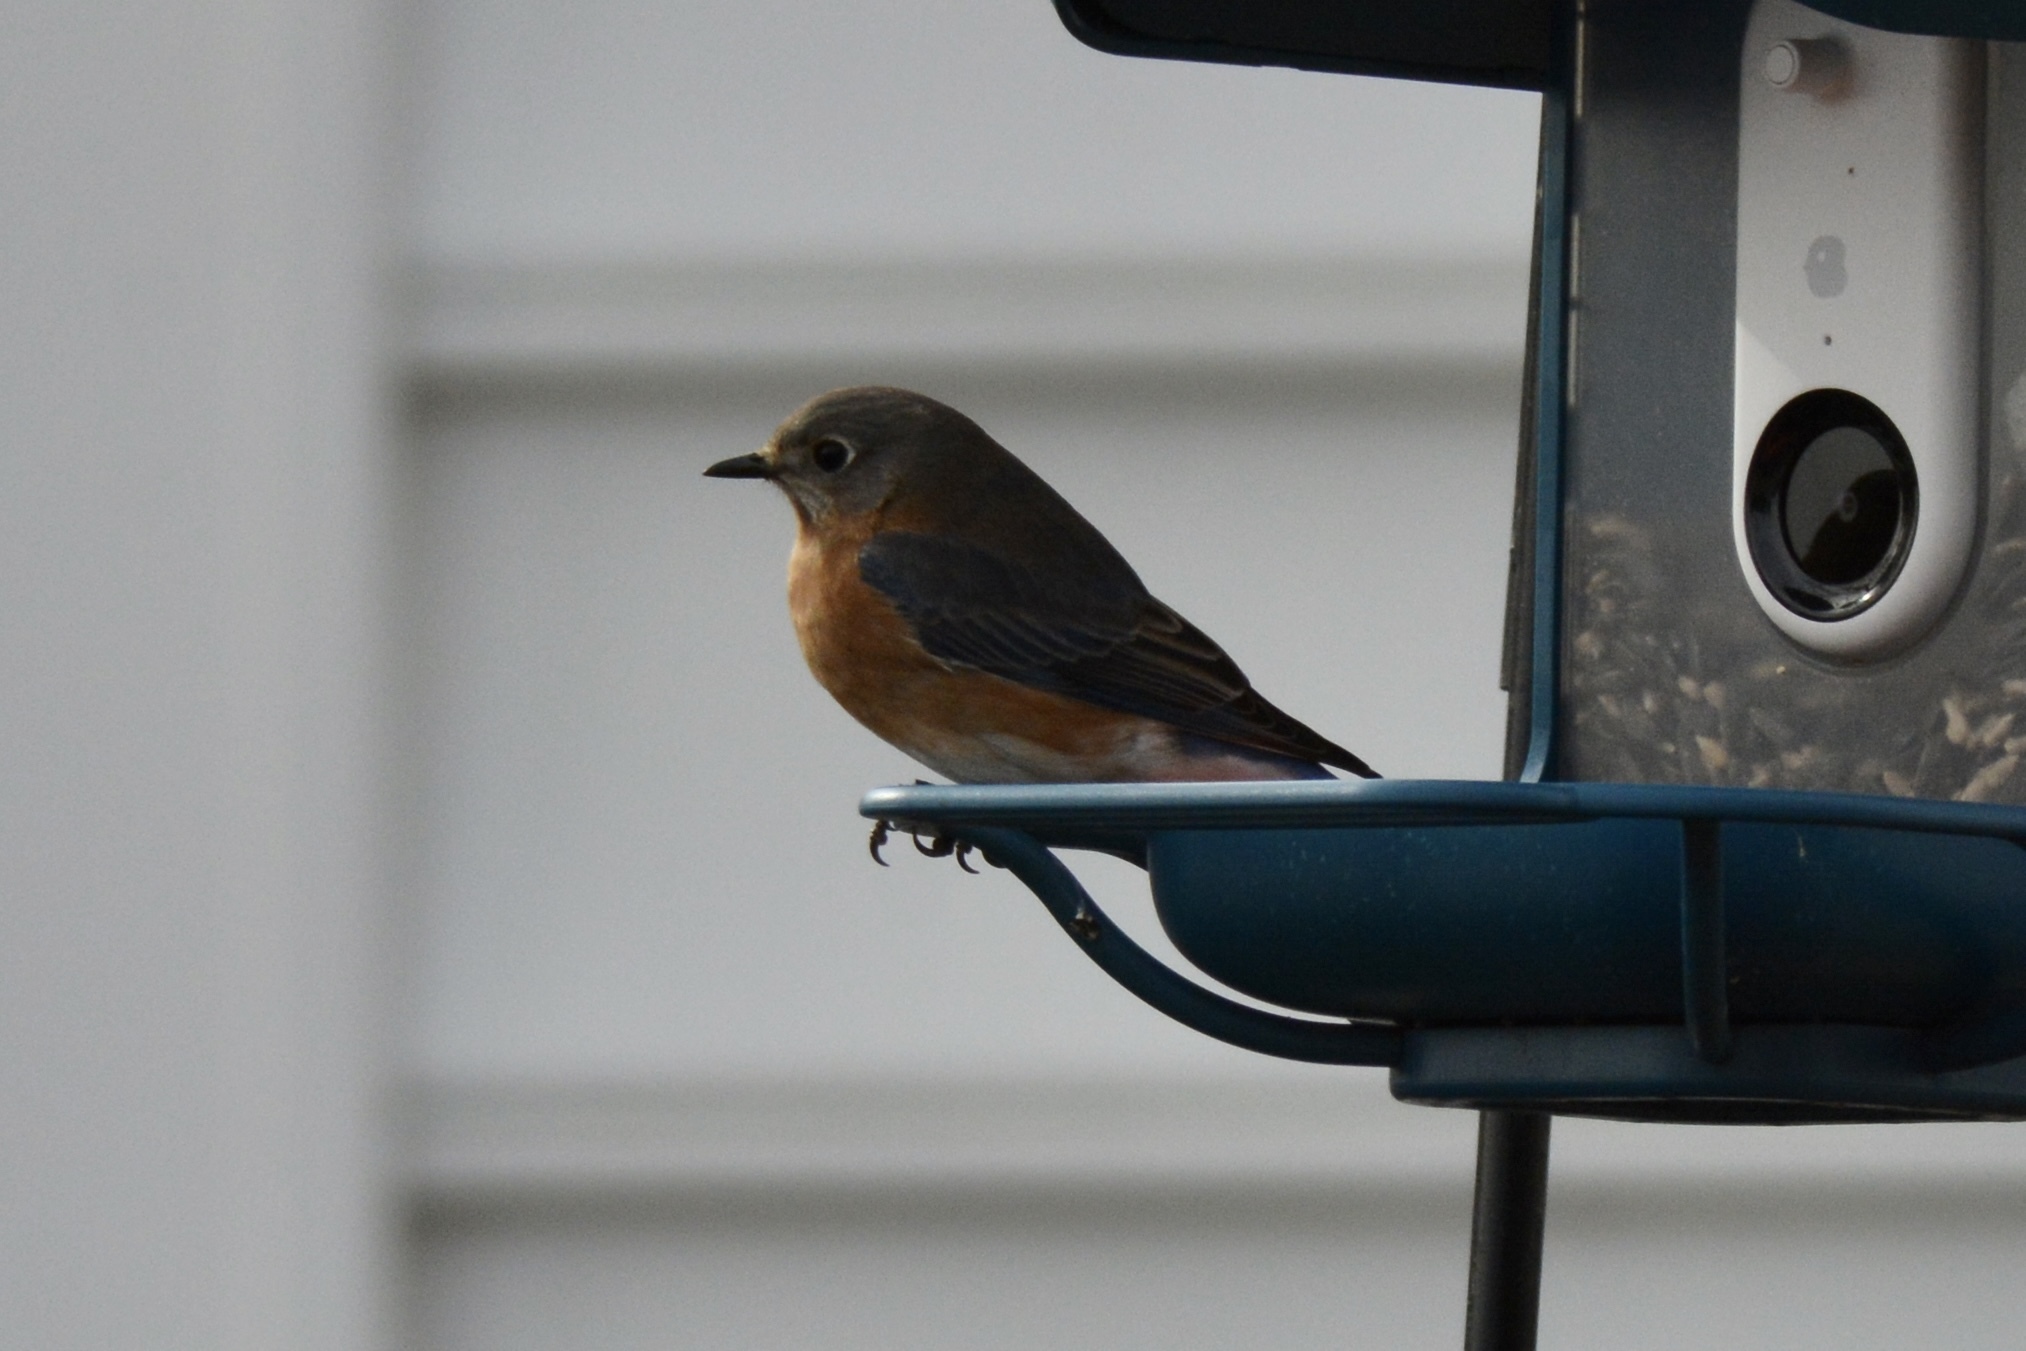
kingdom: Animalia
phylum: Chordata
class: Aves
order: Passeriformes
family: Turdidae
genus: Sialia
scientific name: Sialia sialis
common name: Eastern bluebird
